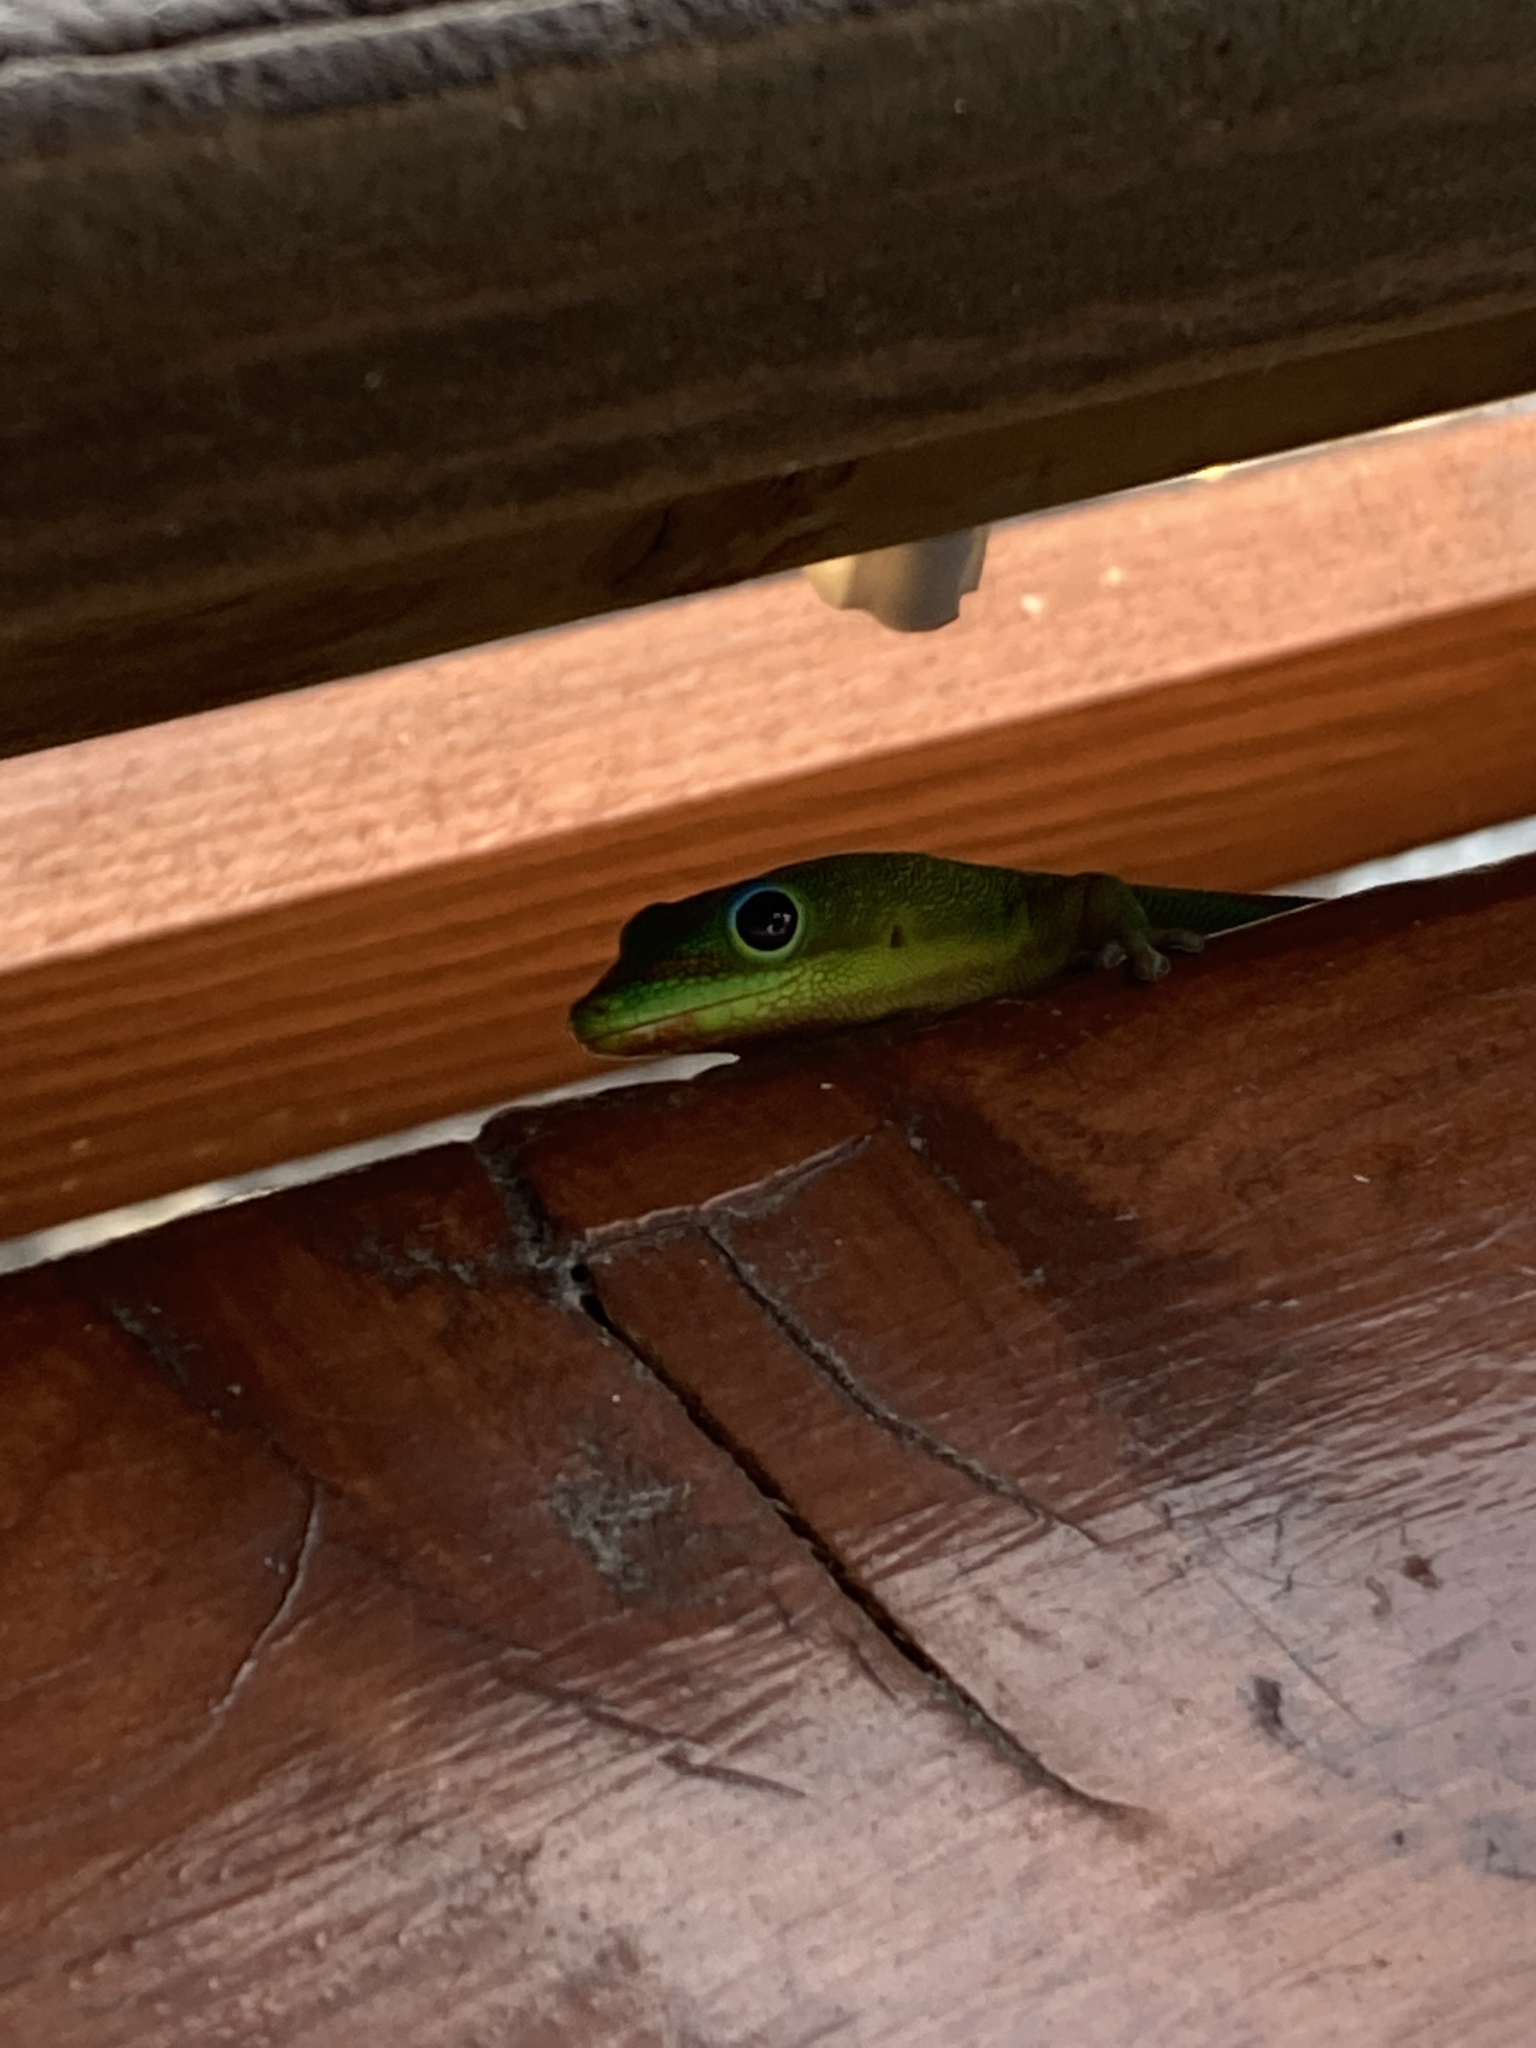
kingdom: Animalia
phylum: Chordata
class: Squamata
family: Gekkonidae
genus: Phelsuma
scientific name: Phelsuma laticauda
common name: Gold dust day gecko
